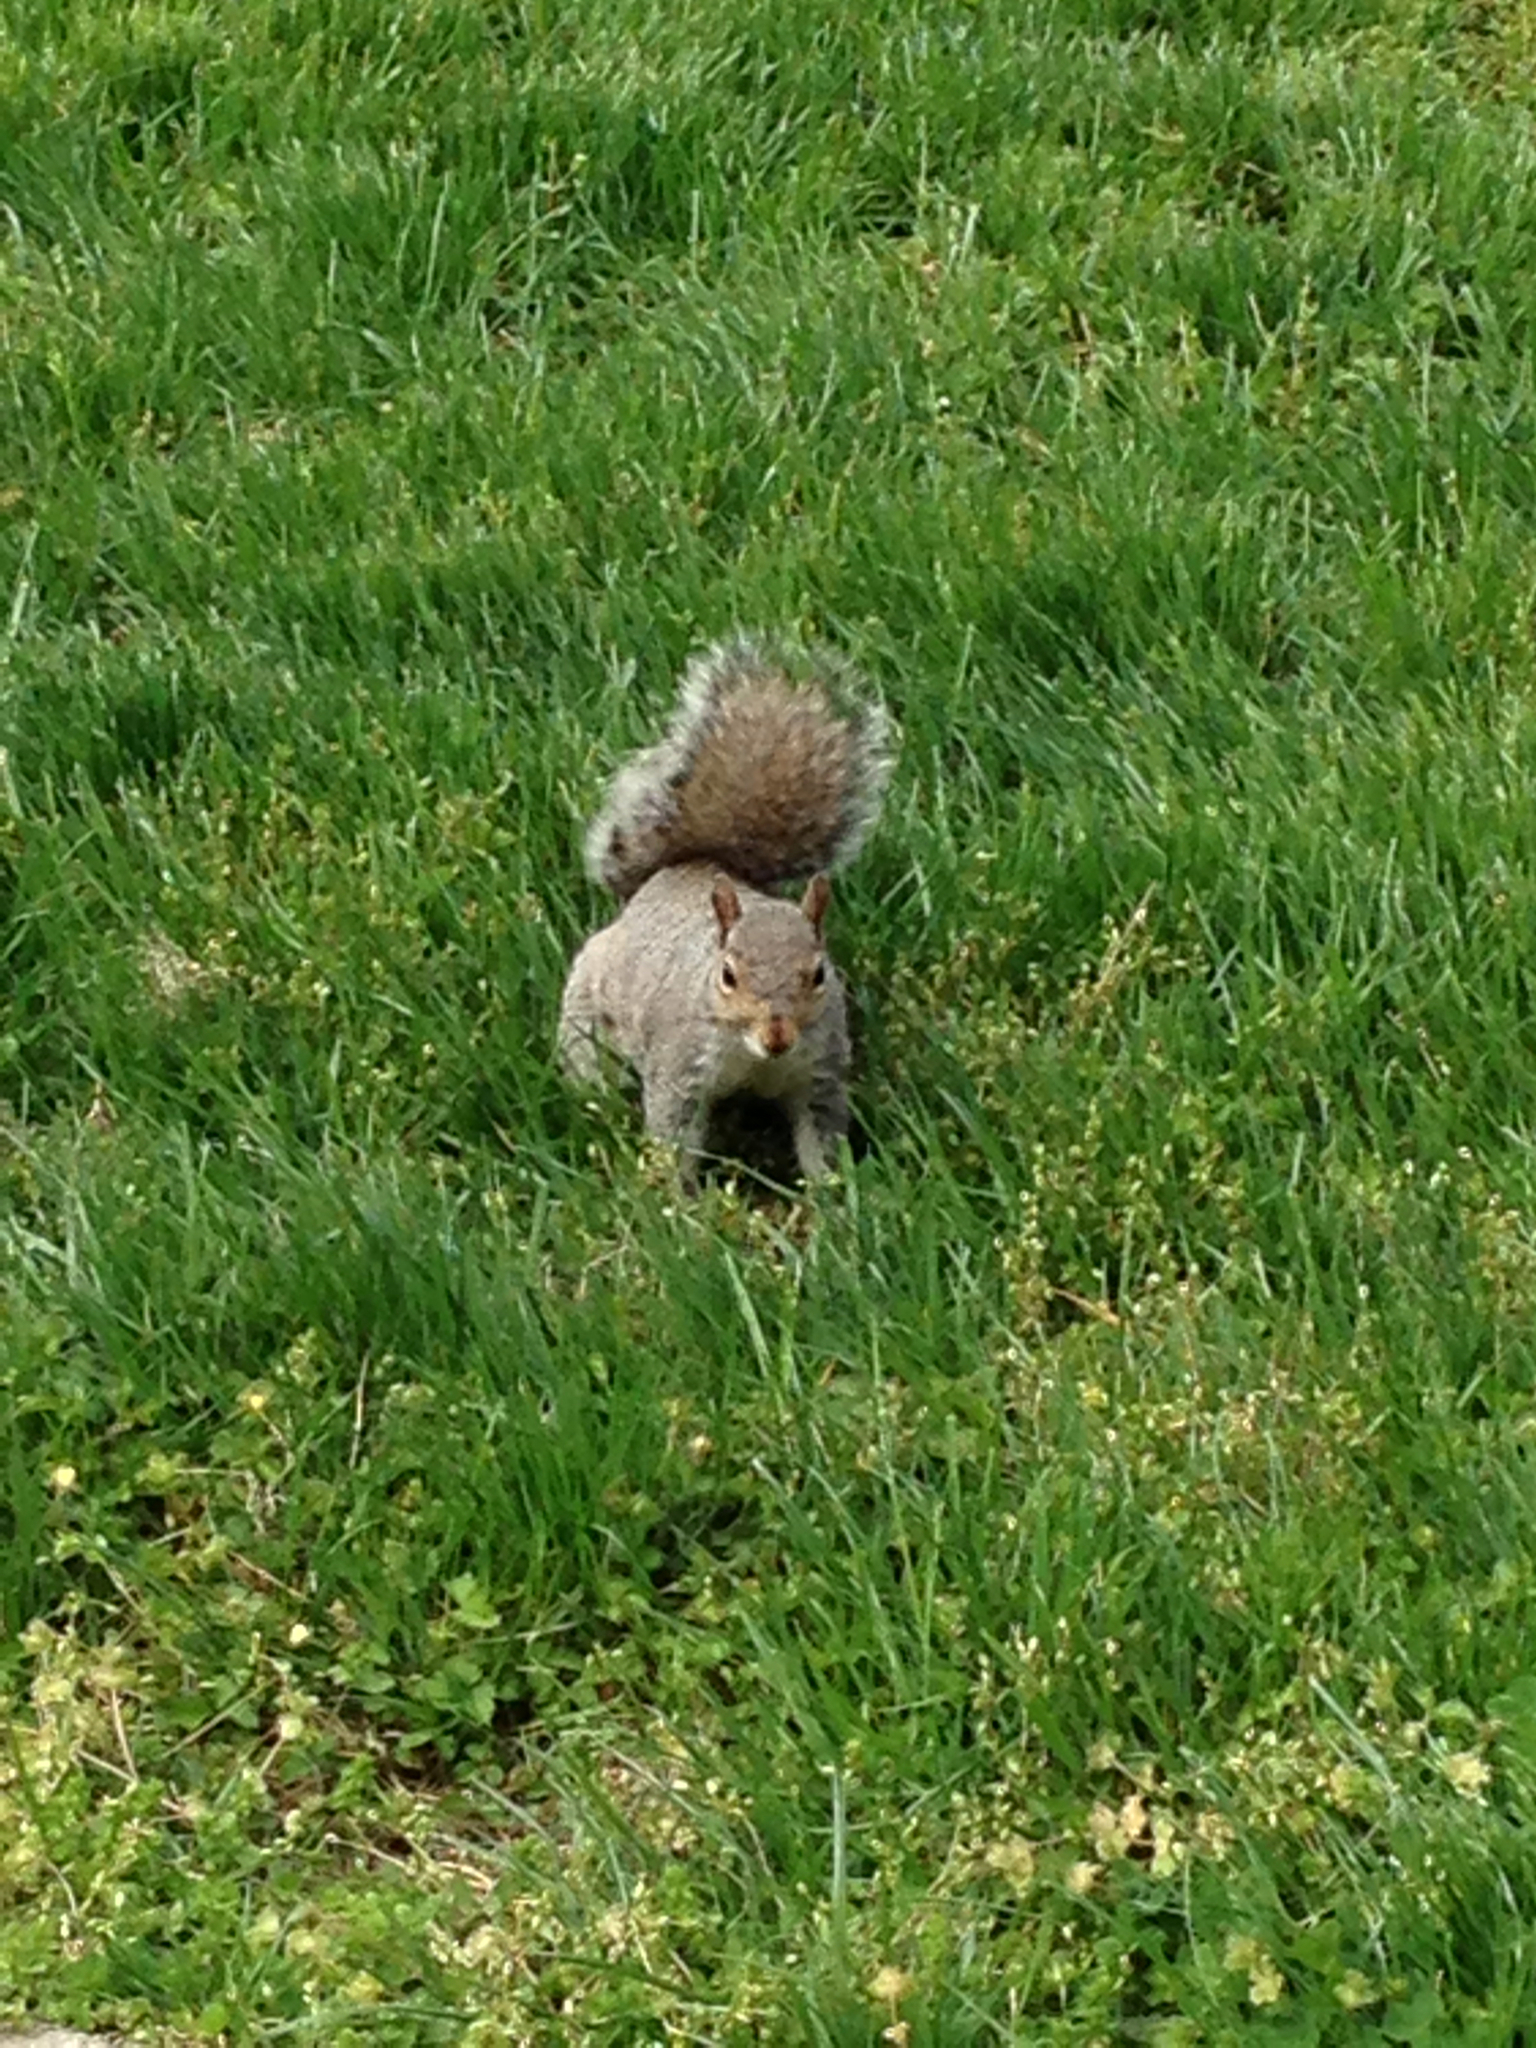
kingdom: Animalia
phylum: Chordata
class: Mammalia
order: Rodentia
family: Sciuridae
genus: Sciurus
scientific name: Sciurus carolinensis
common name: Eastern gray squirrel
